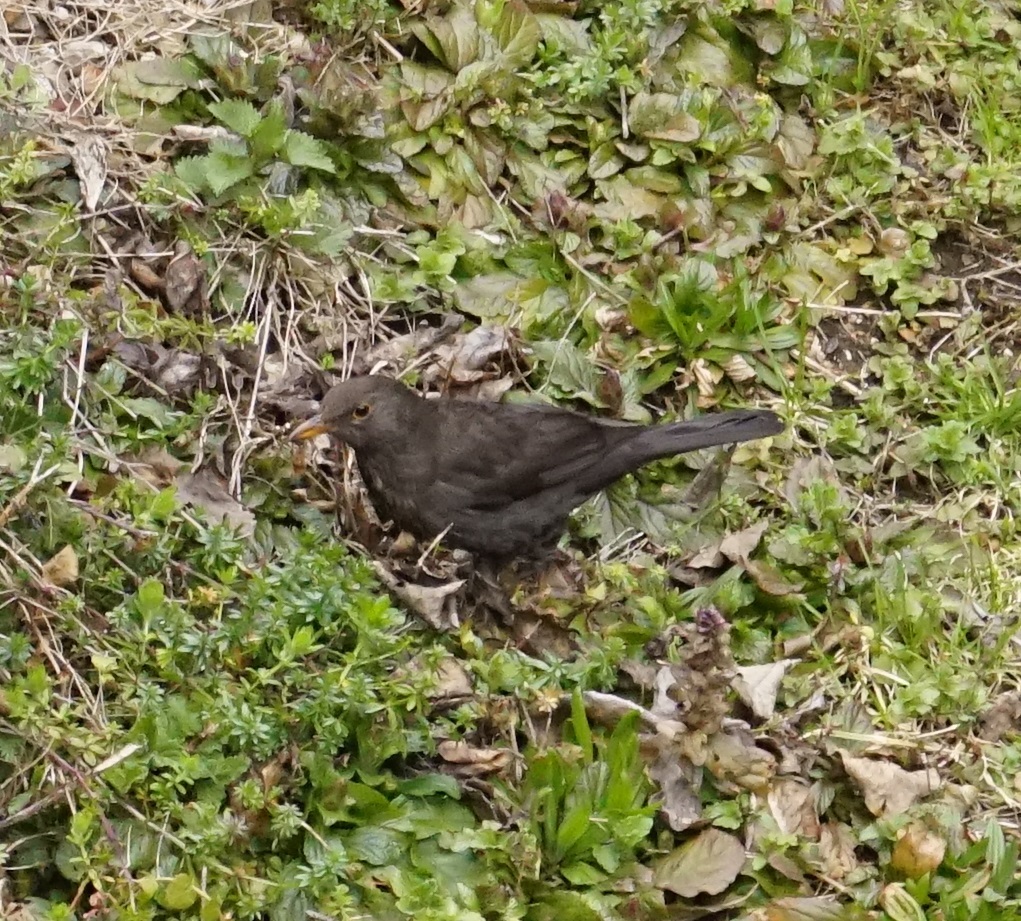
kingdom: Animalia
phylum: Chordata
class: Aves
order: Passeriformes
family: Turdidae
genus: Turdus
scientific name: Turdus merula
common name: Common blackbird
